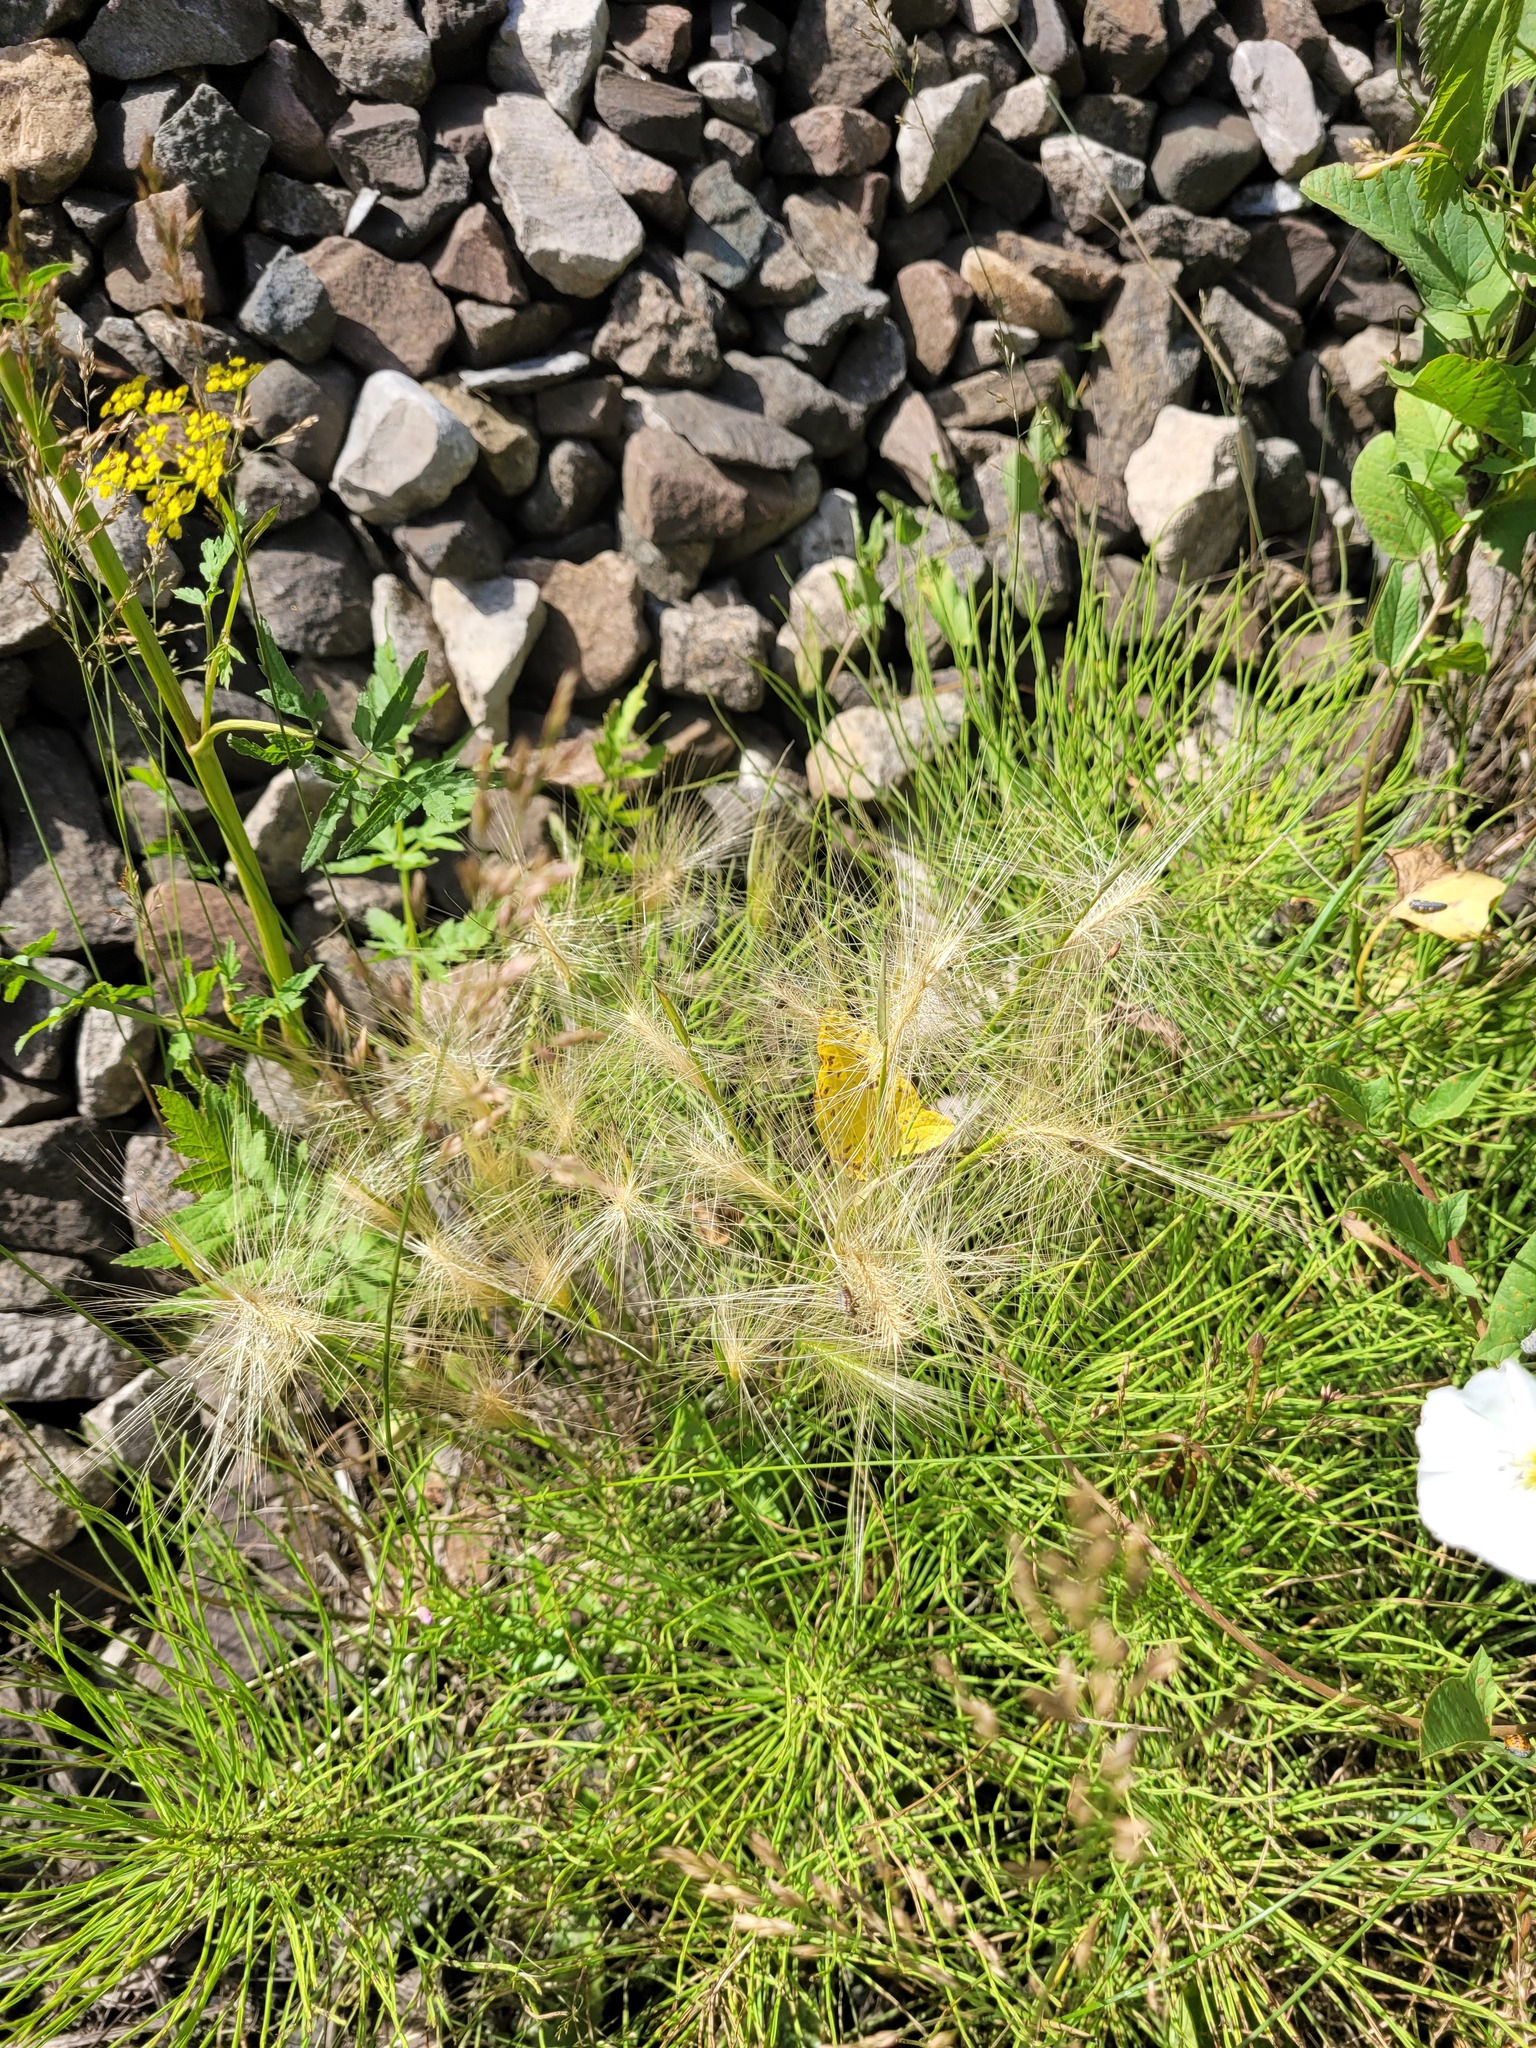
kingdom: Plantae
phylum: Tracheophyta
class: Liliopsida
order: Poales
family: Poaceae
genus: Hordeum
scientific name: Hordeum jubatum
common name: Foxtail barley
